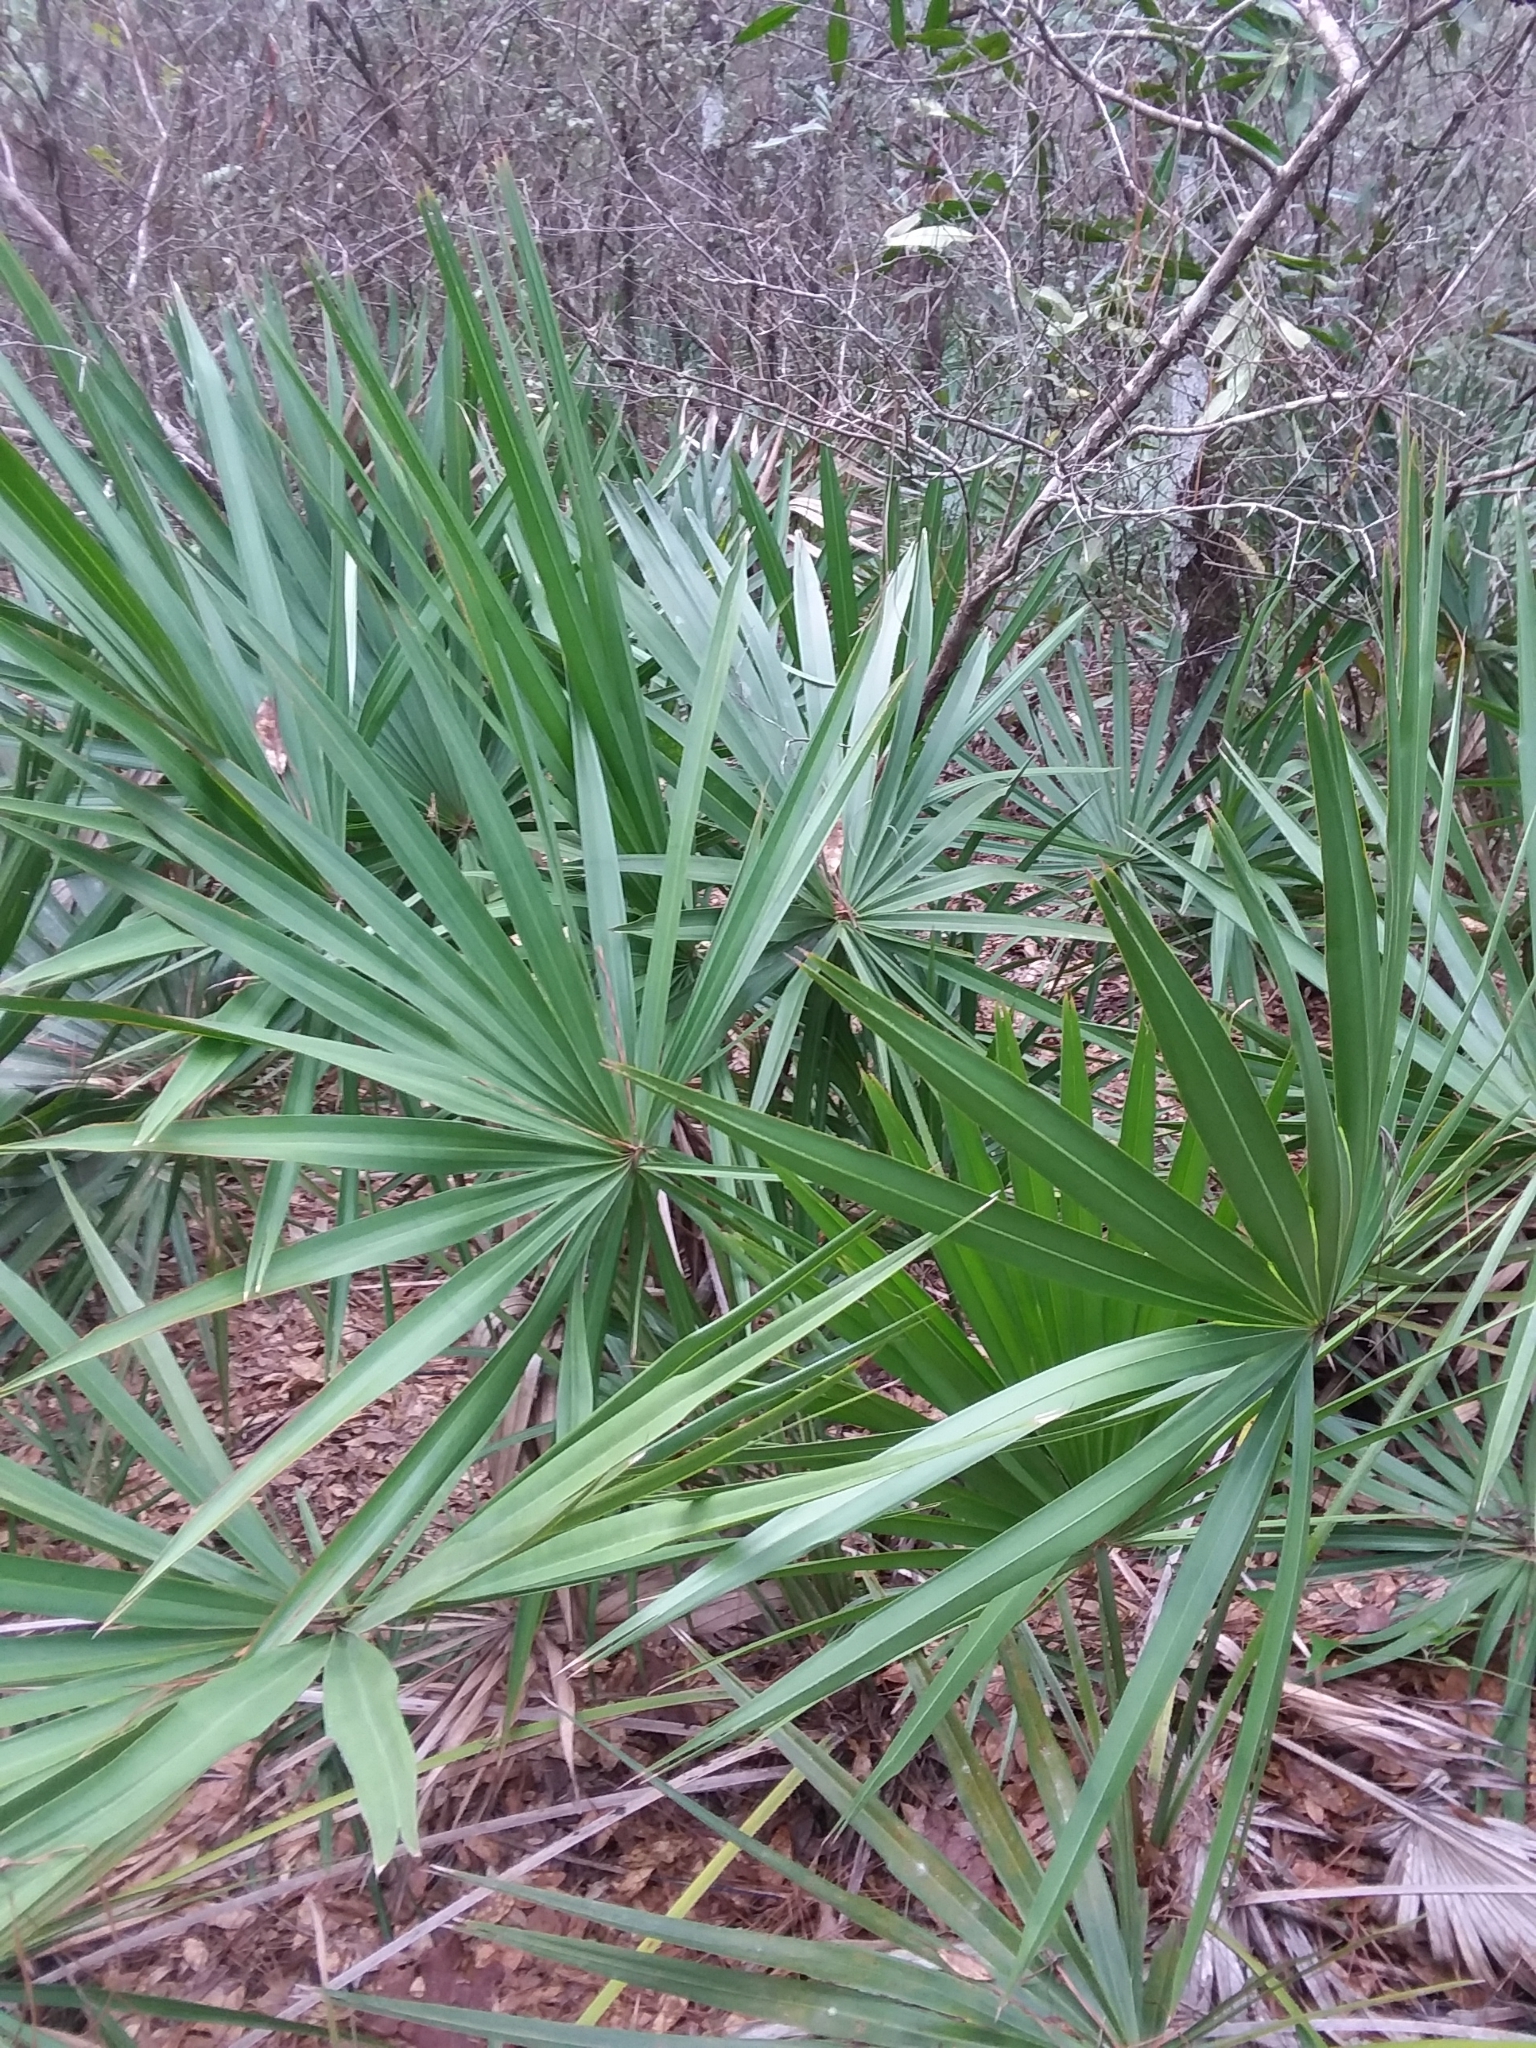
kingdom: Plantae
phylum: Tracheophyta
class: Liliopsida
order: Arecales
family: Arecaceae
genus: Serenoa
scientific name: Serenoa repens
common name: Saw-palmetto
